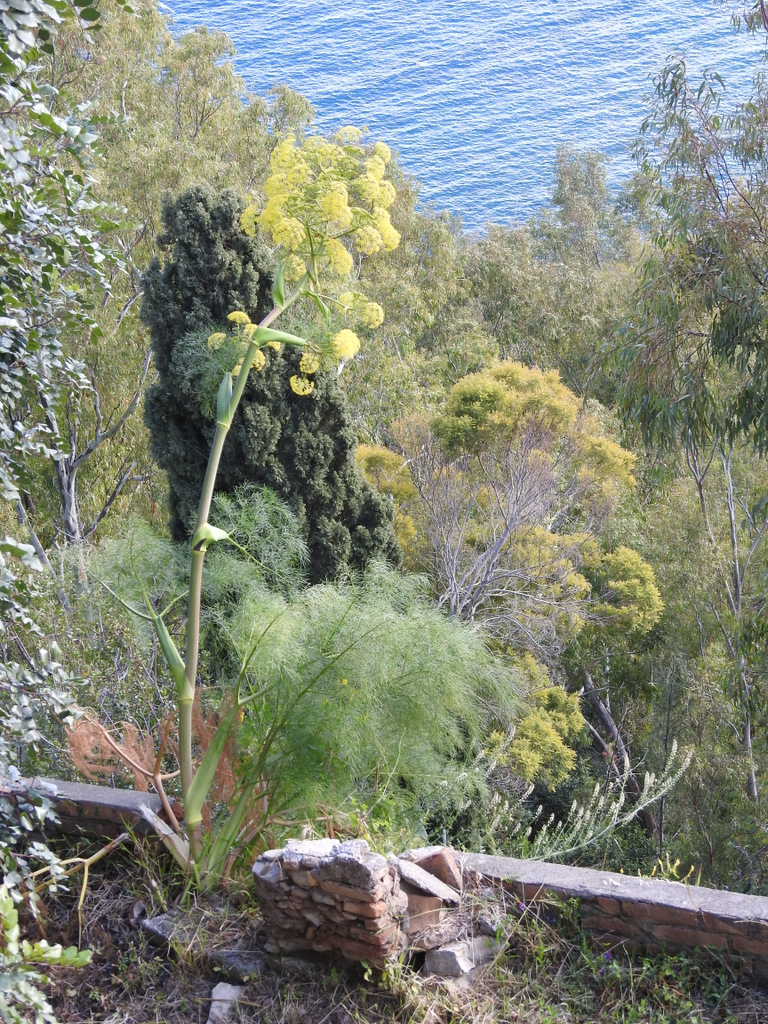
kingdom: Plantae
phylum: Tracheophyta
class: Magnoliopsida
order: Apiales
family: Apiaceae
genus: Ferula
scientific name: Ferula communis
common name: Giant fennel
